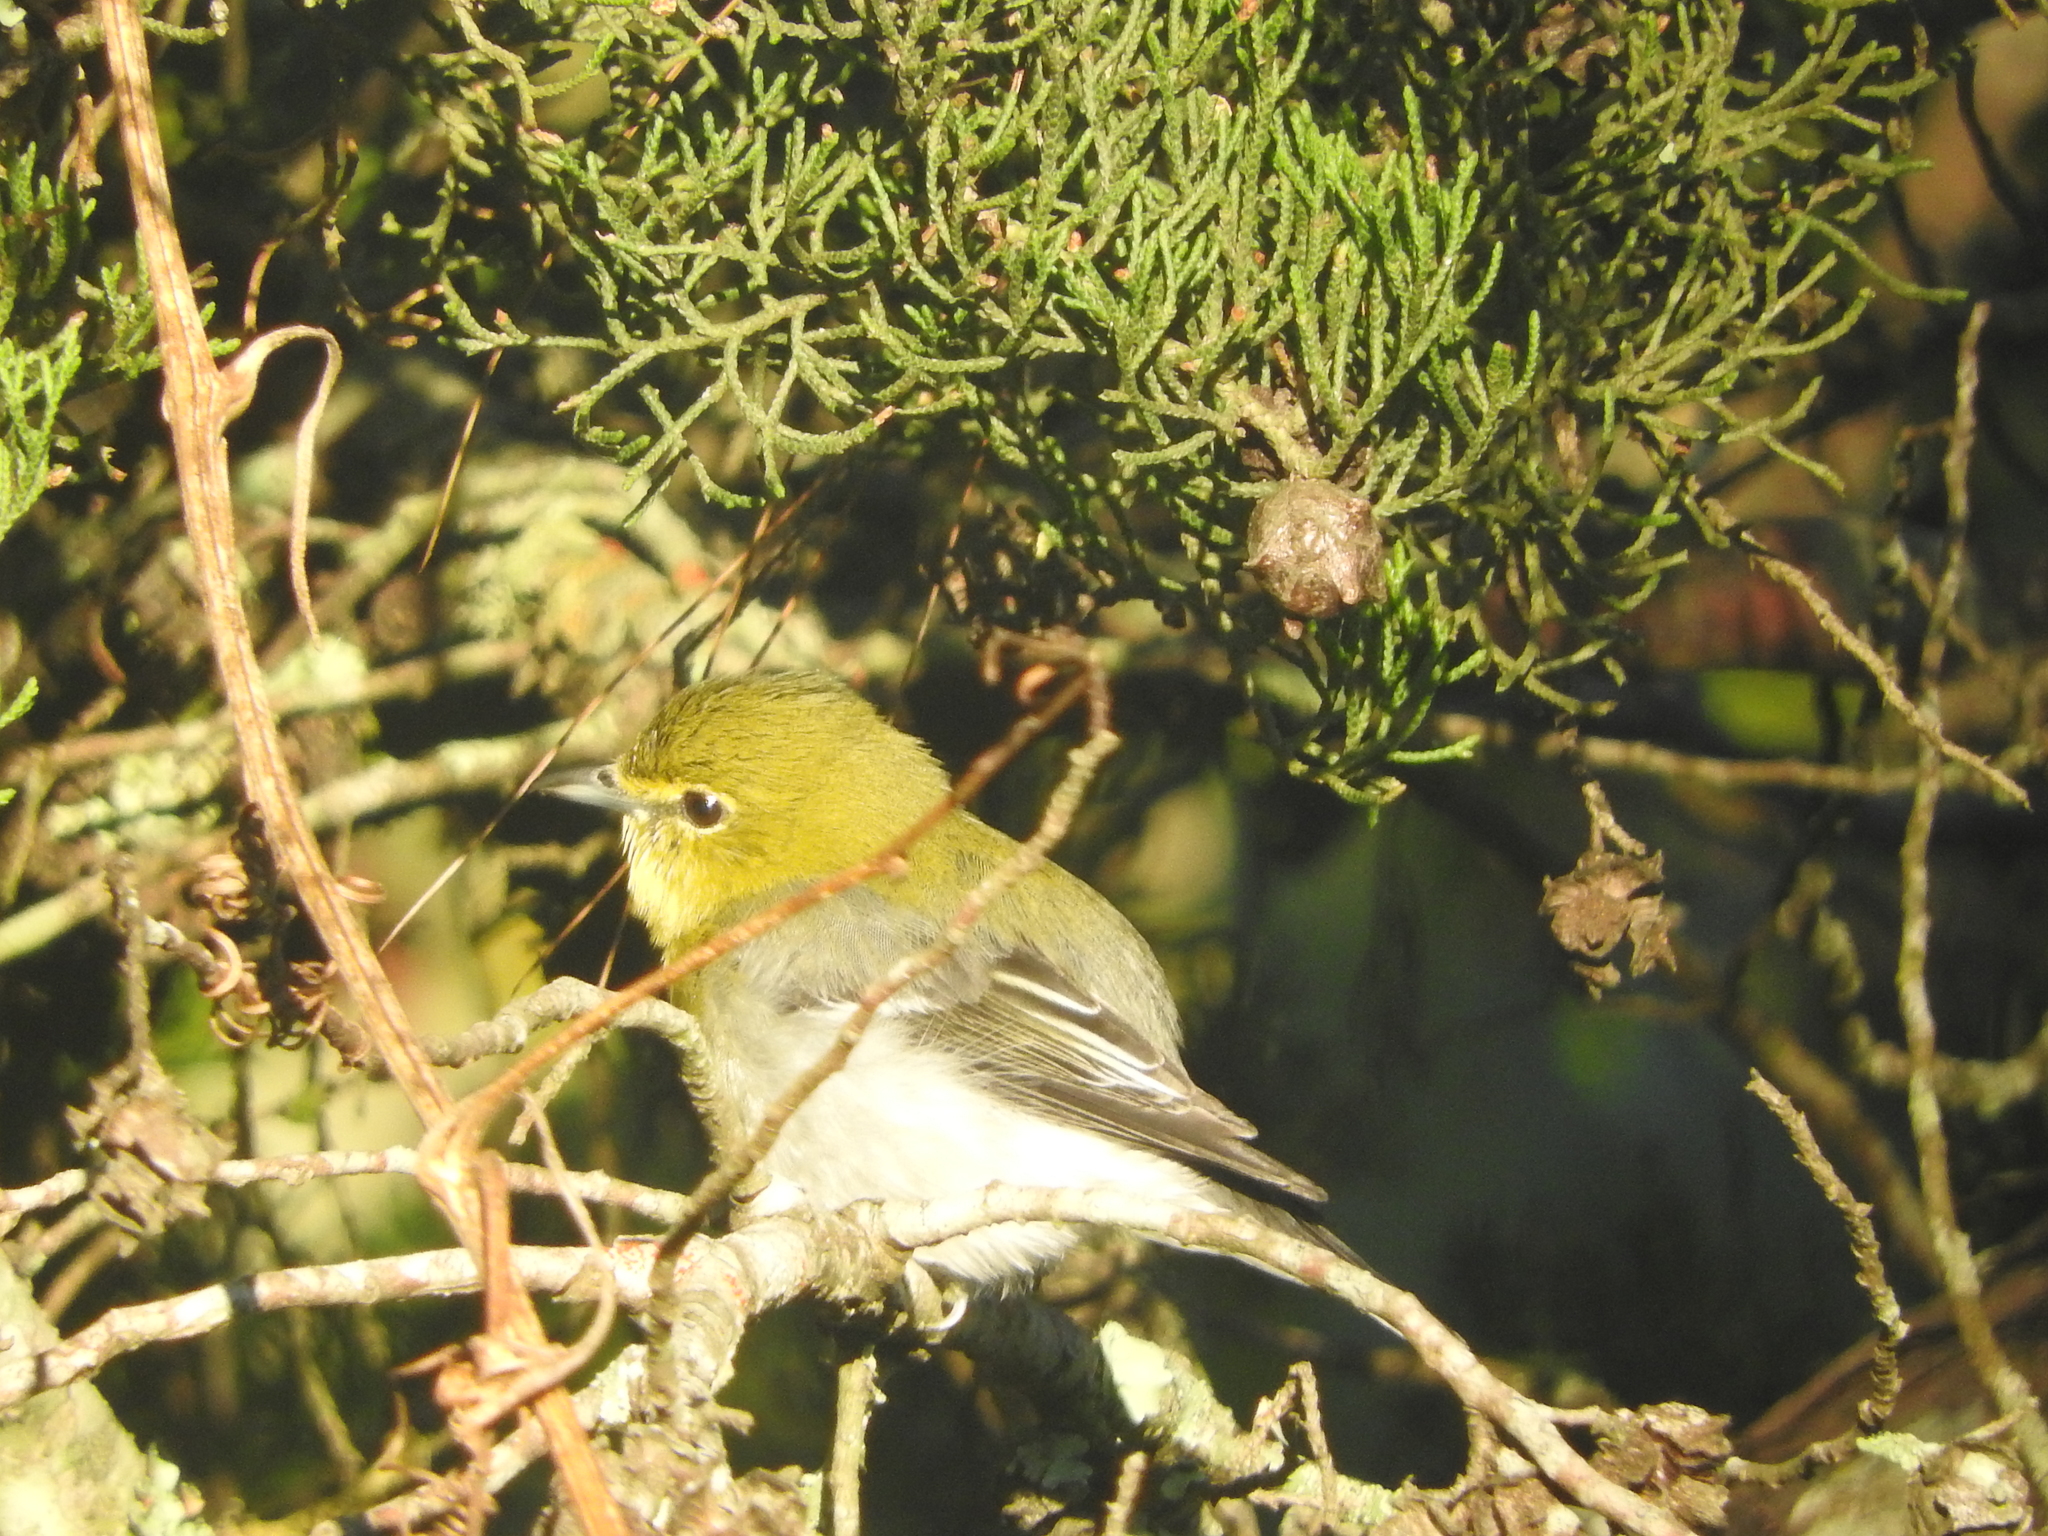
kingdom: Animalia
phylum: Chordata
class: Aves
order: Passeriformes
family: Vireonidae
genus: Vireo
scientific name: Vireo flavifrons
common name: Yellow-throated vireo
